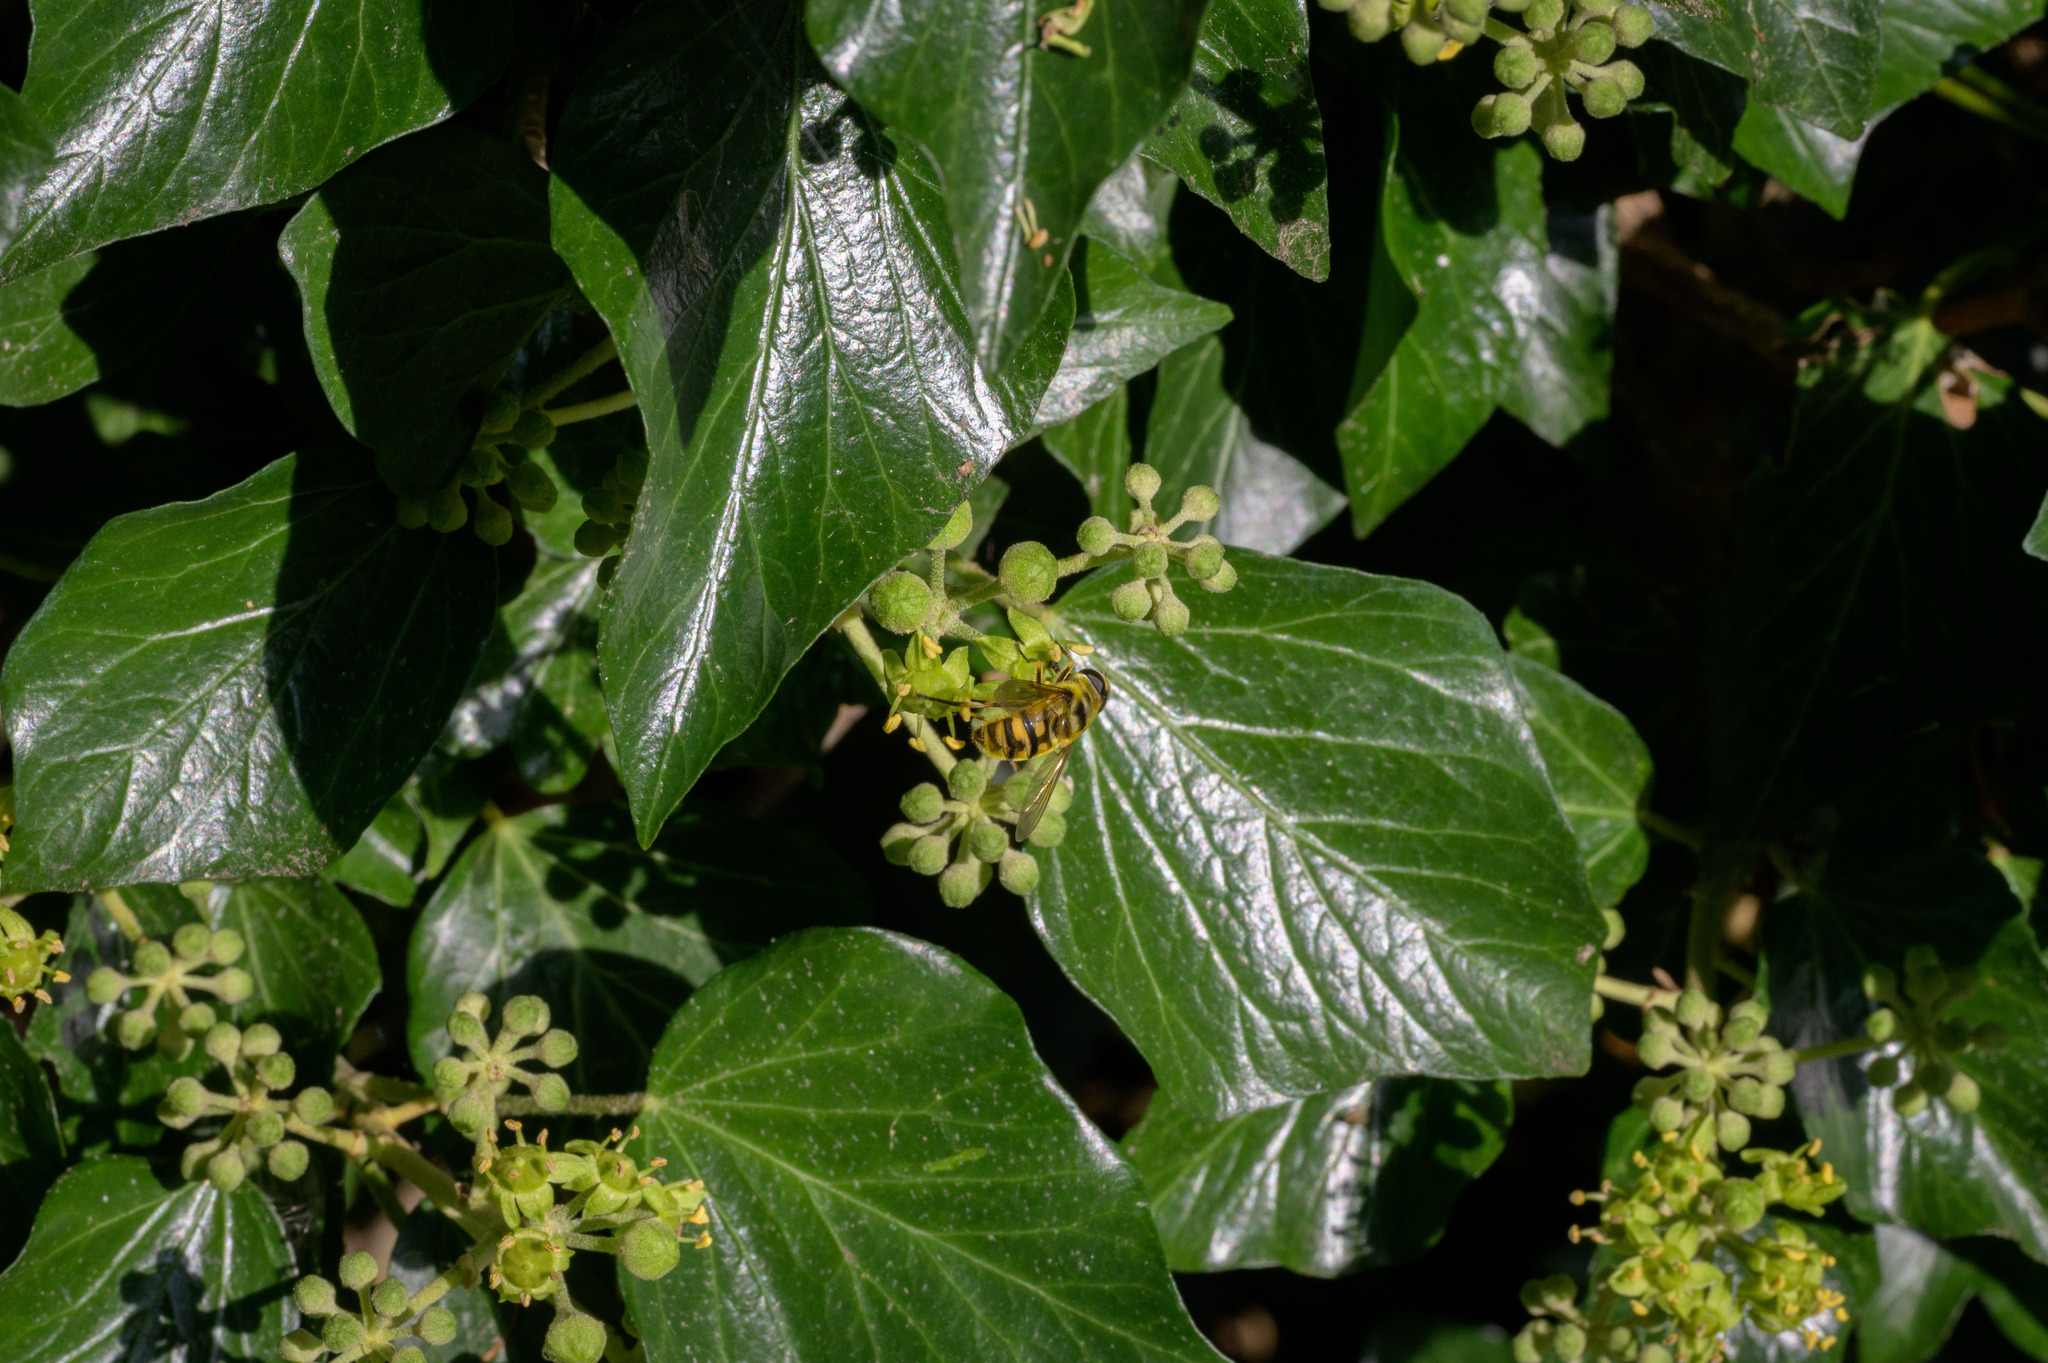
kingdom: Animalia
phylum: Arthropoda
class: Insecta
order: Diptera
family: Syrphidae
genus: Myathropa
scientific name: Myathropa florea
